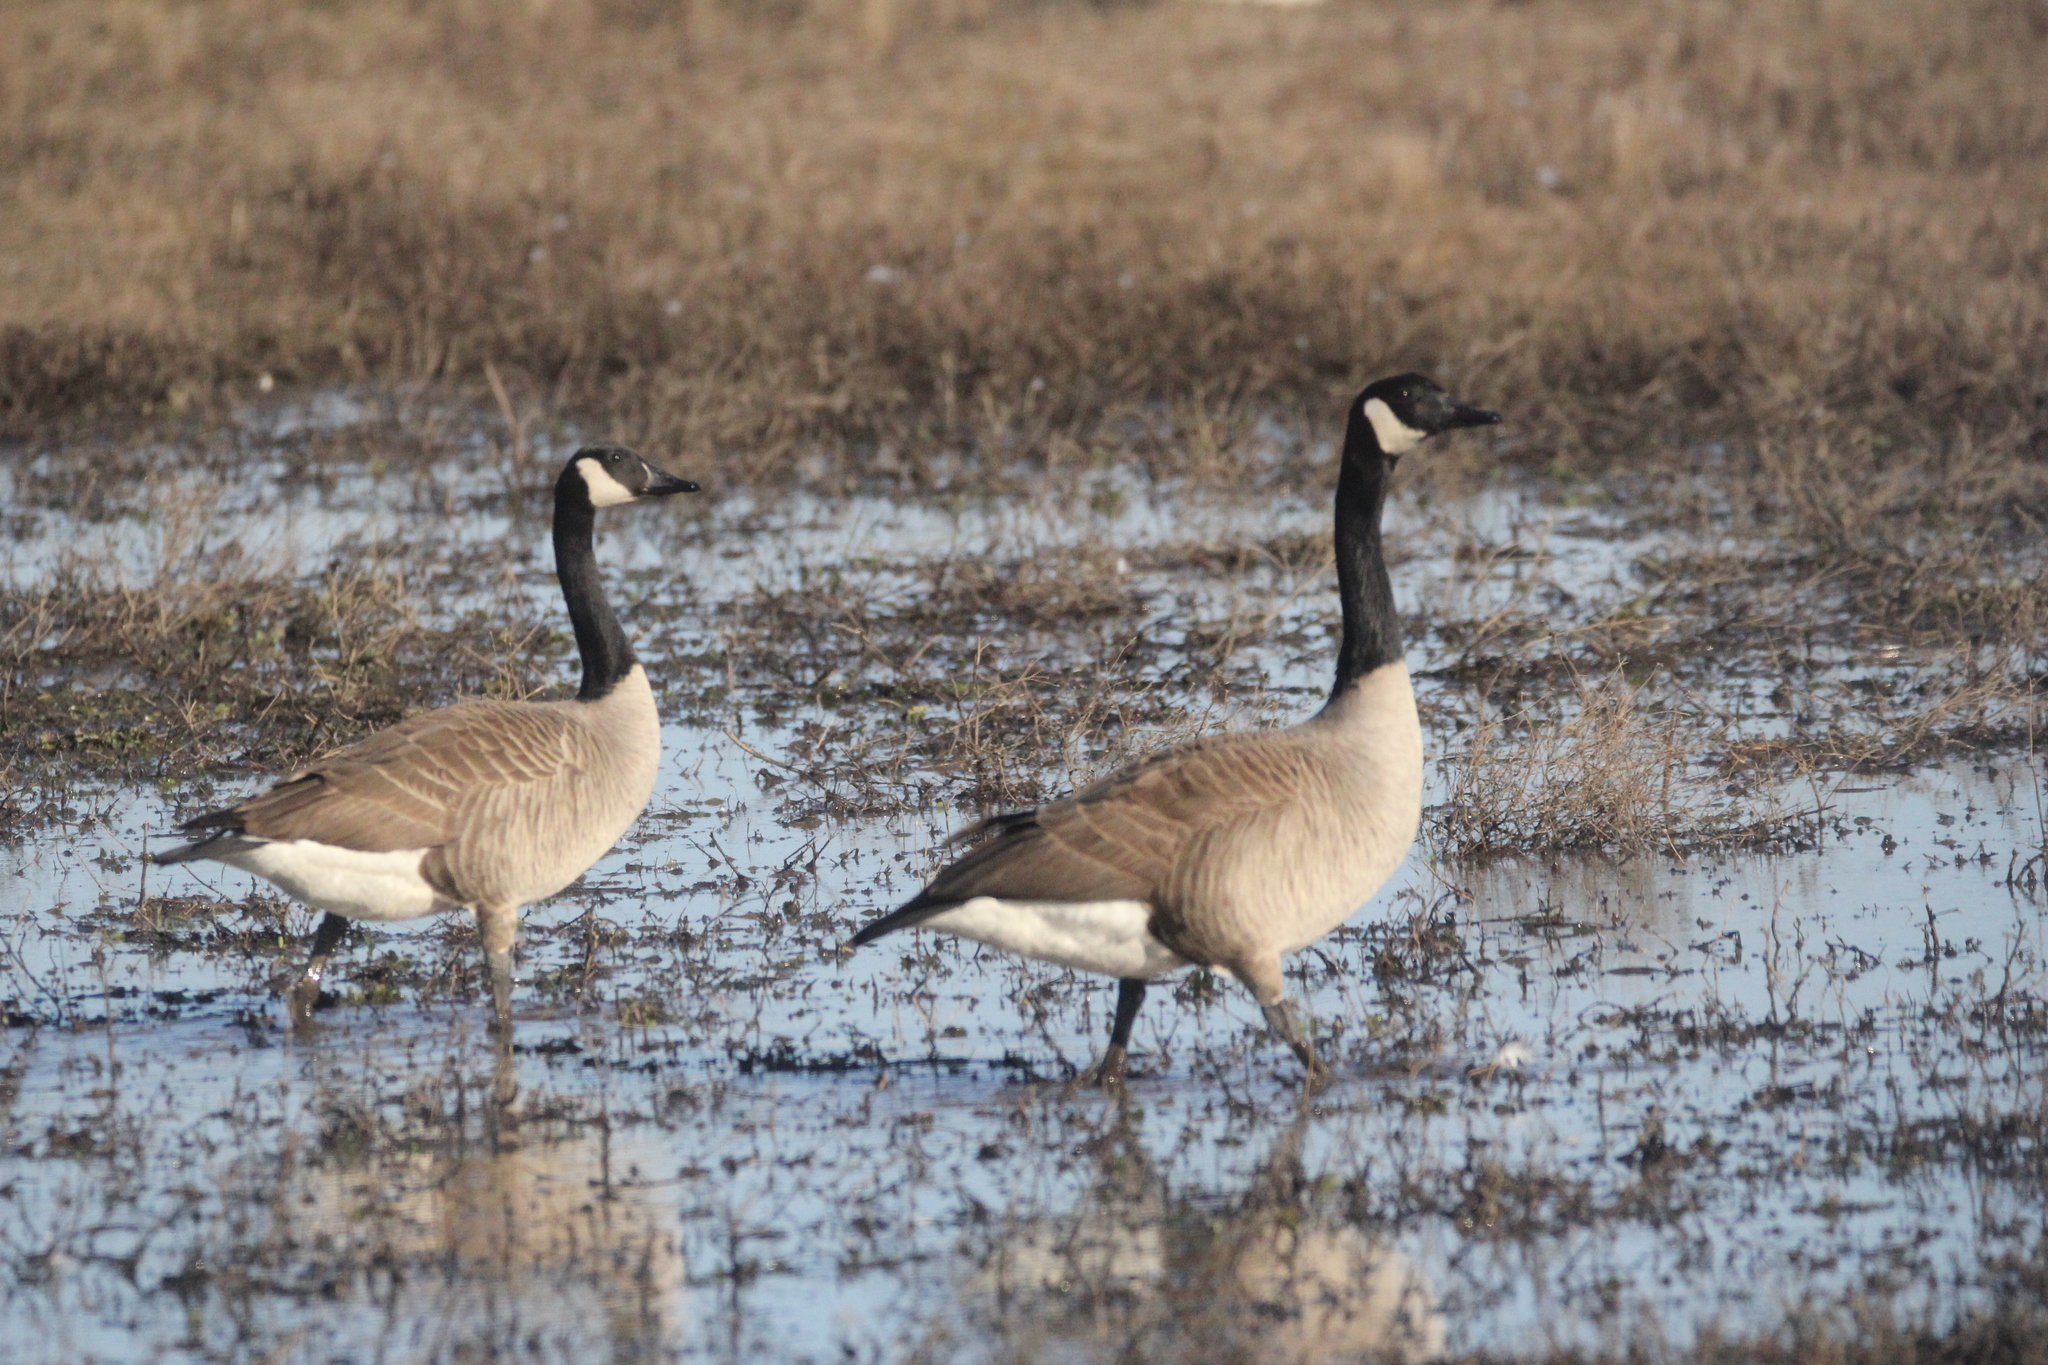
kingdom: Animalia
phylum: Chordata
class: Aves
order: Anseriformes
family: Anatidae
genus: Branta
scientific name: Branta canadensis
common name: Canada goose
